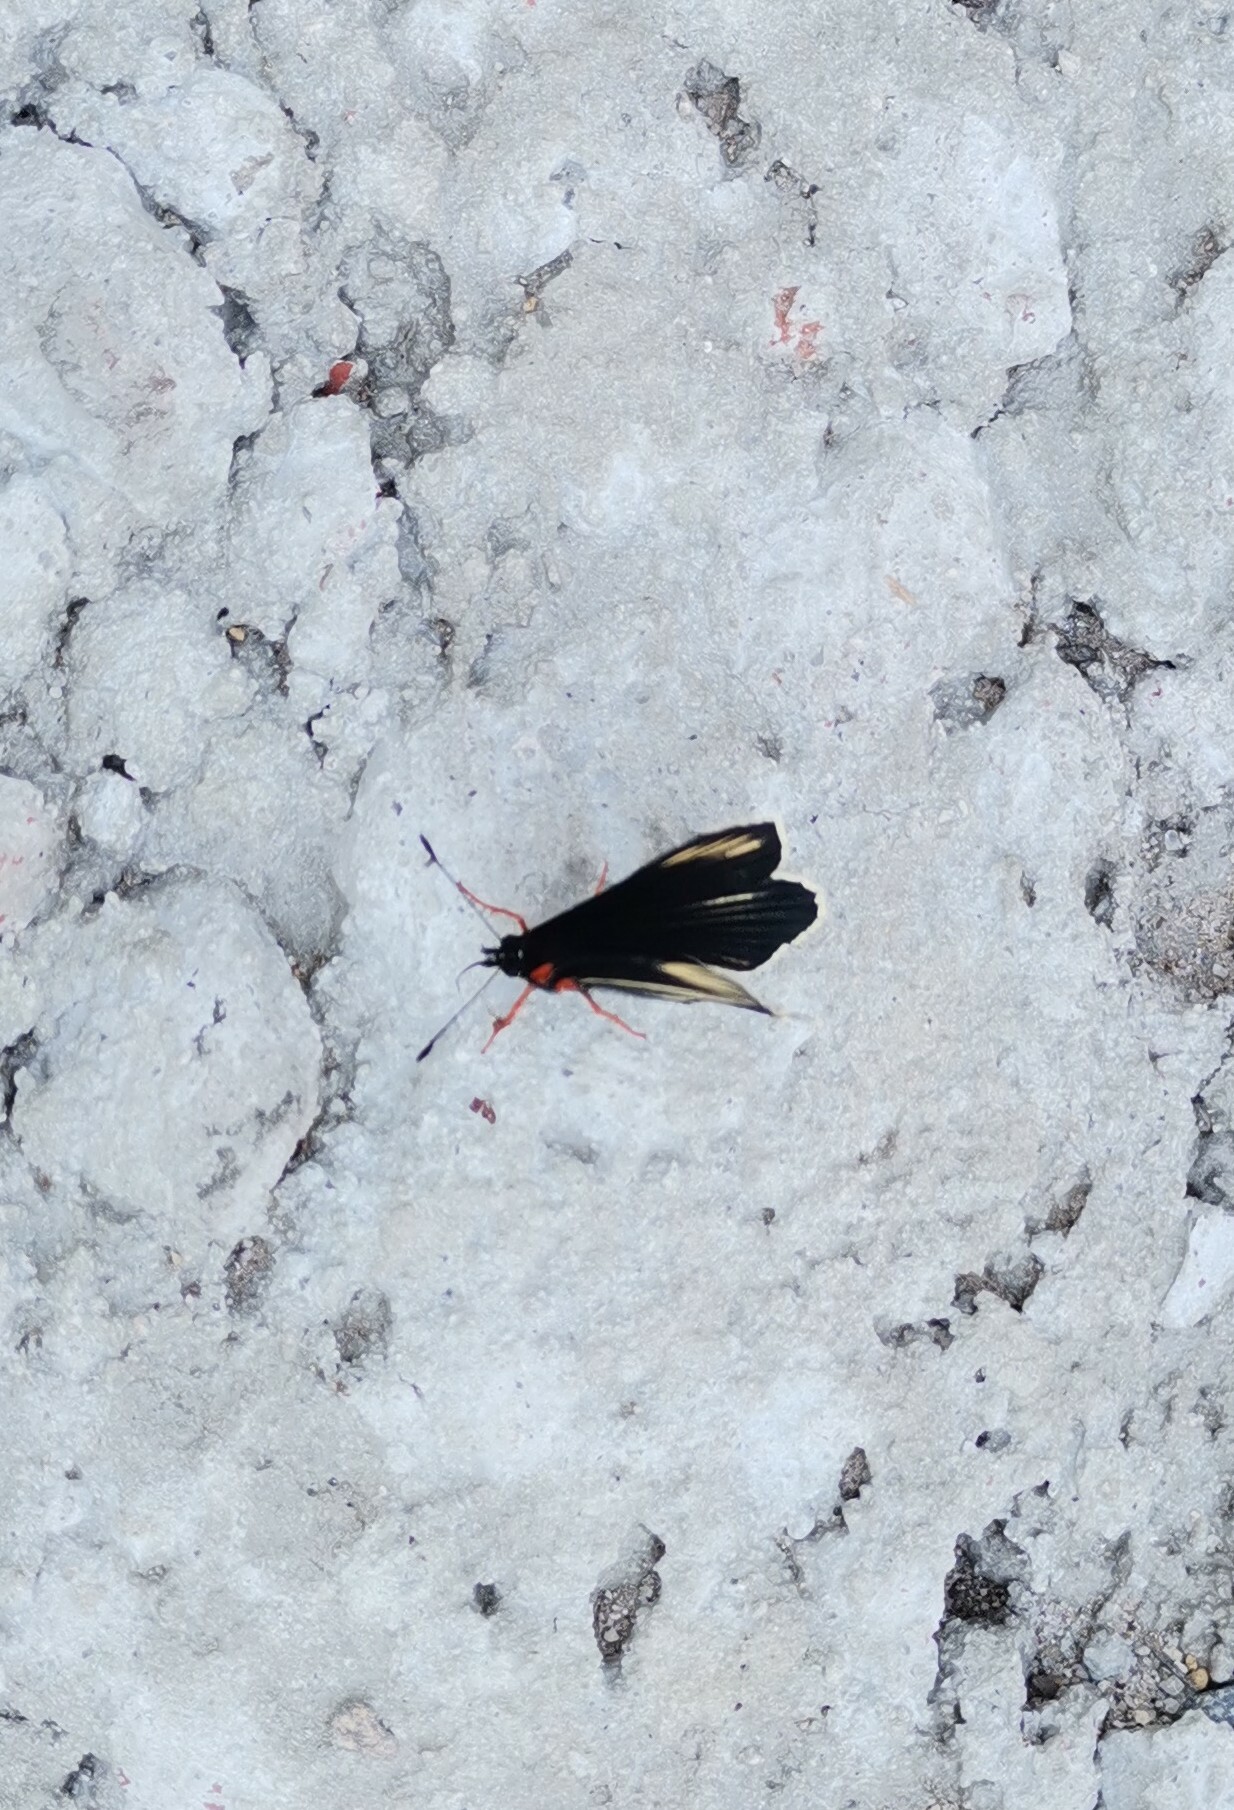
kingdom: Animalia
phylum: Arthropoda
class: Insecta
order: Lepidoptera
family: Nymphalidae
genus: Chlosyne
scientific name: Chlosyne ehrenbergii
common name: White-rayed patch
